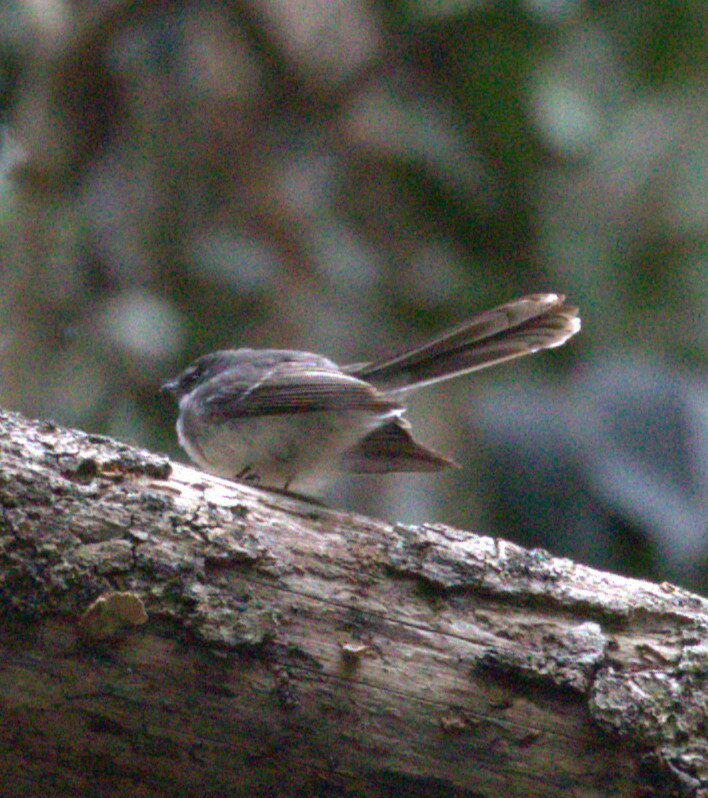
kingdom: Animalia
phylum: Chordata
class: Aves
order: Passeriformes
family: Rhipiduridae
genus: Rhipidura
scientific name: Rhipidura albiscapa
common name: Grey fantail
